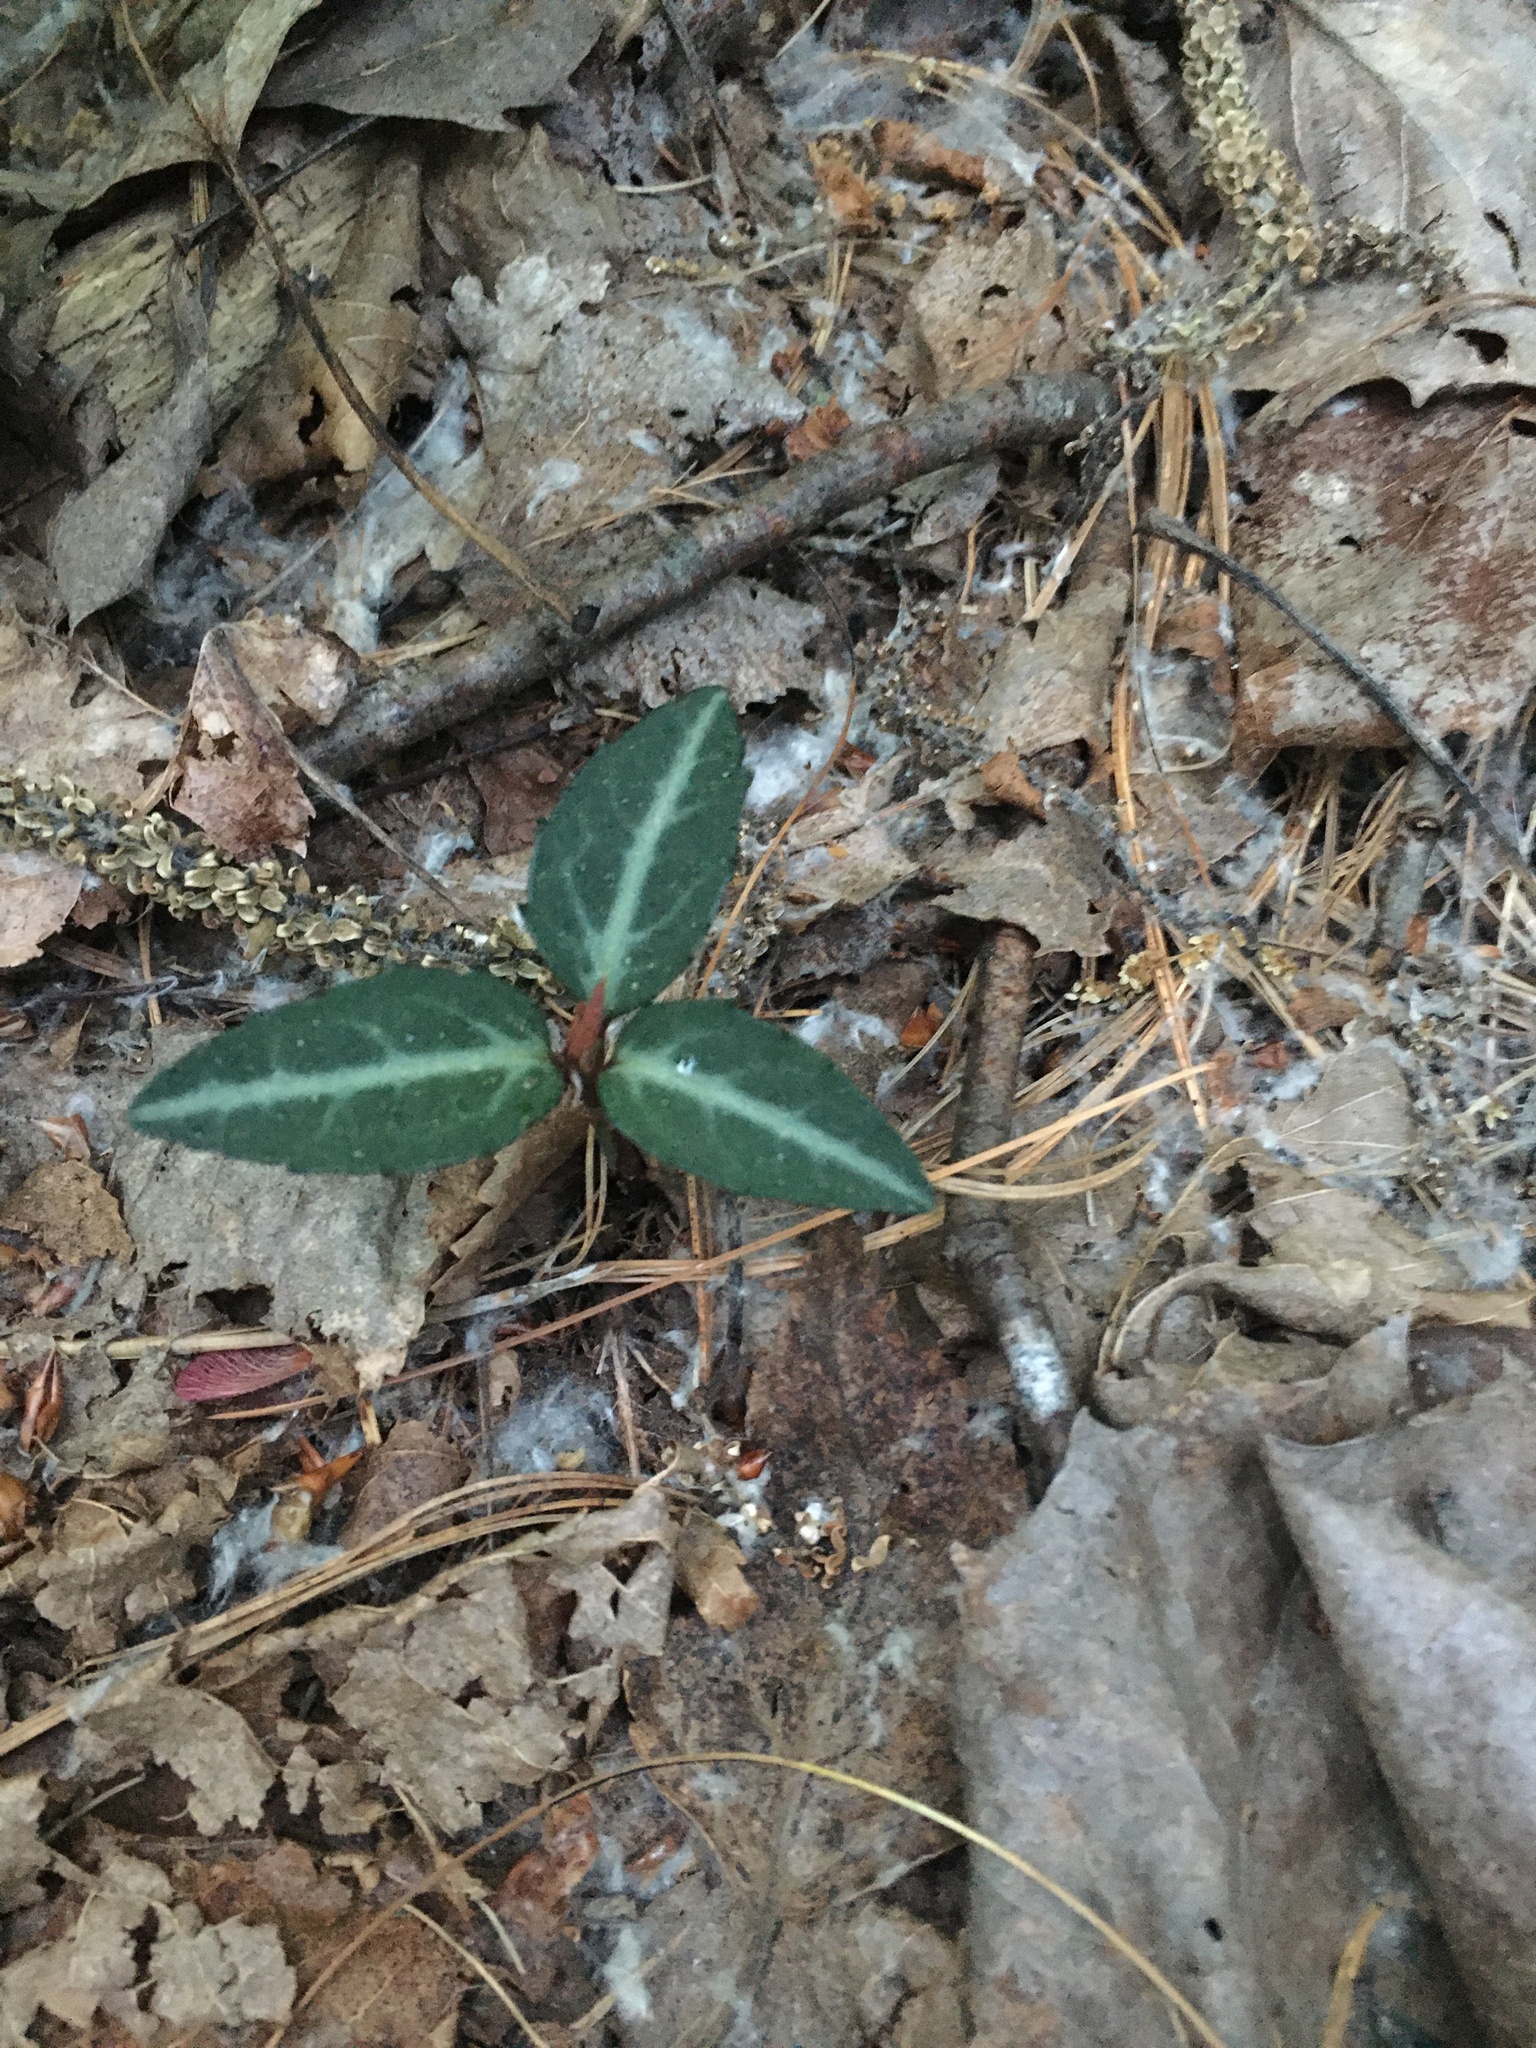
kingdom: Plantae
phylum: Tracheophyta
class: Magnoliopsida
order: Ericales
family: Ericaceae
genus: Chimaphila
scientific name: Chimaphila maculata
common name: Spotted pipsissewa
